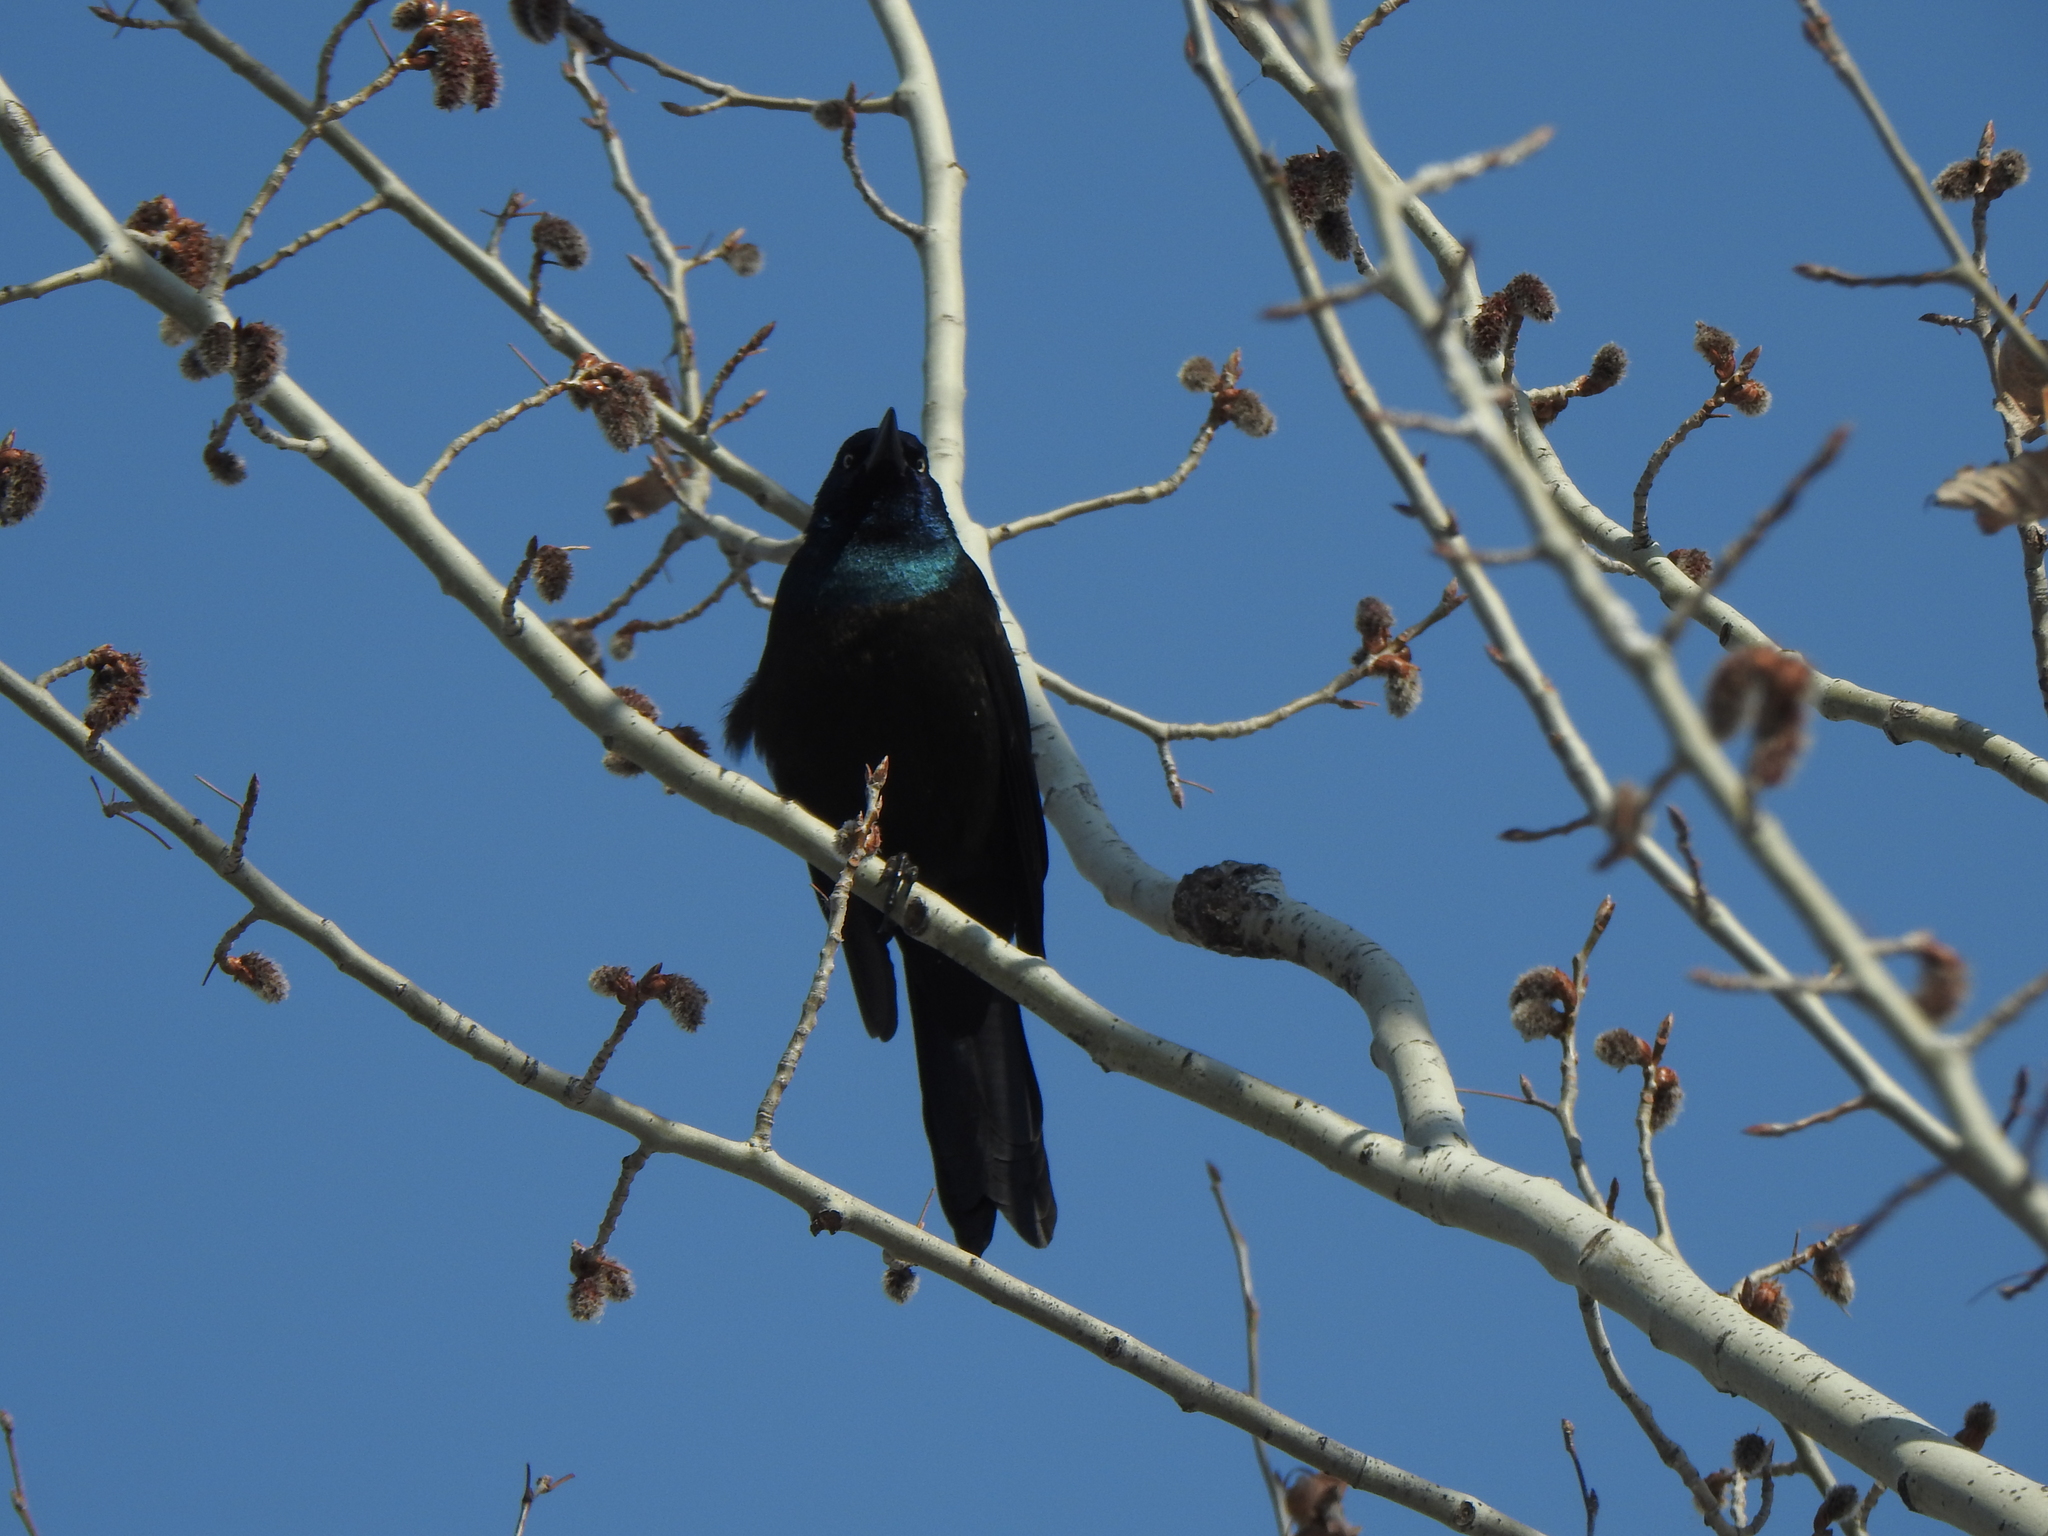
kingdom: Animalia
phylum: Chordata
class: Aves
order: Passeriformes
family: Icteridae
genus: Quiscalus
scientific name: Quiscalus quiscula
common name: Common grackle
